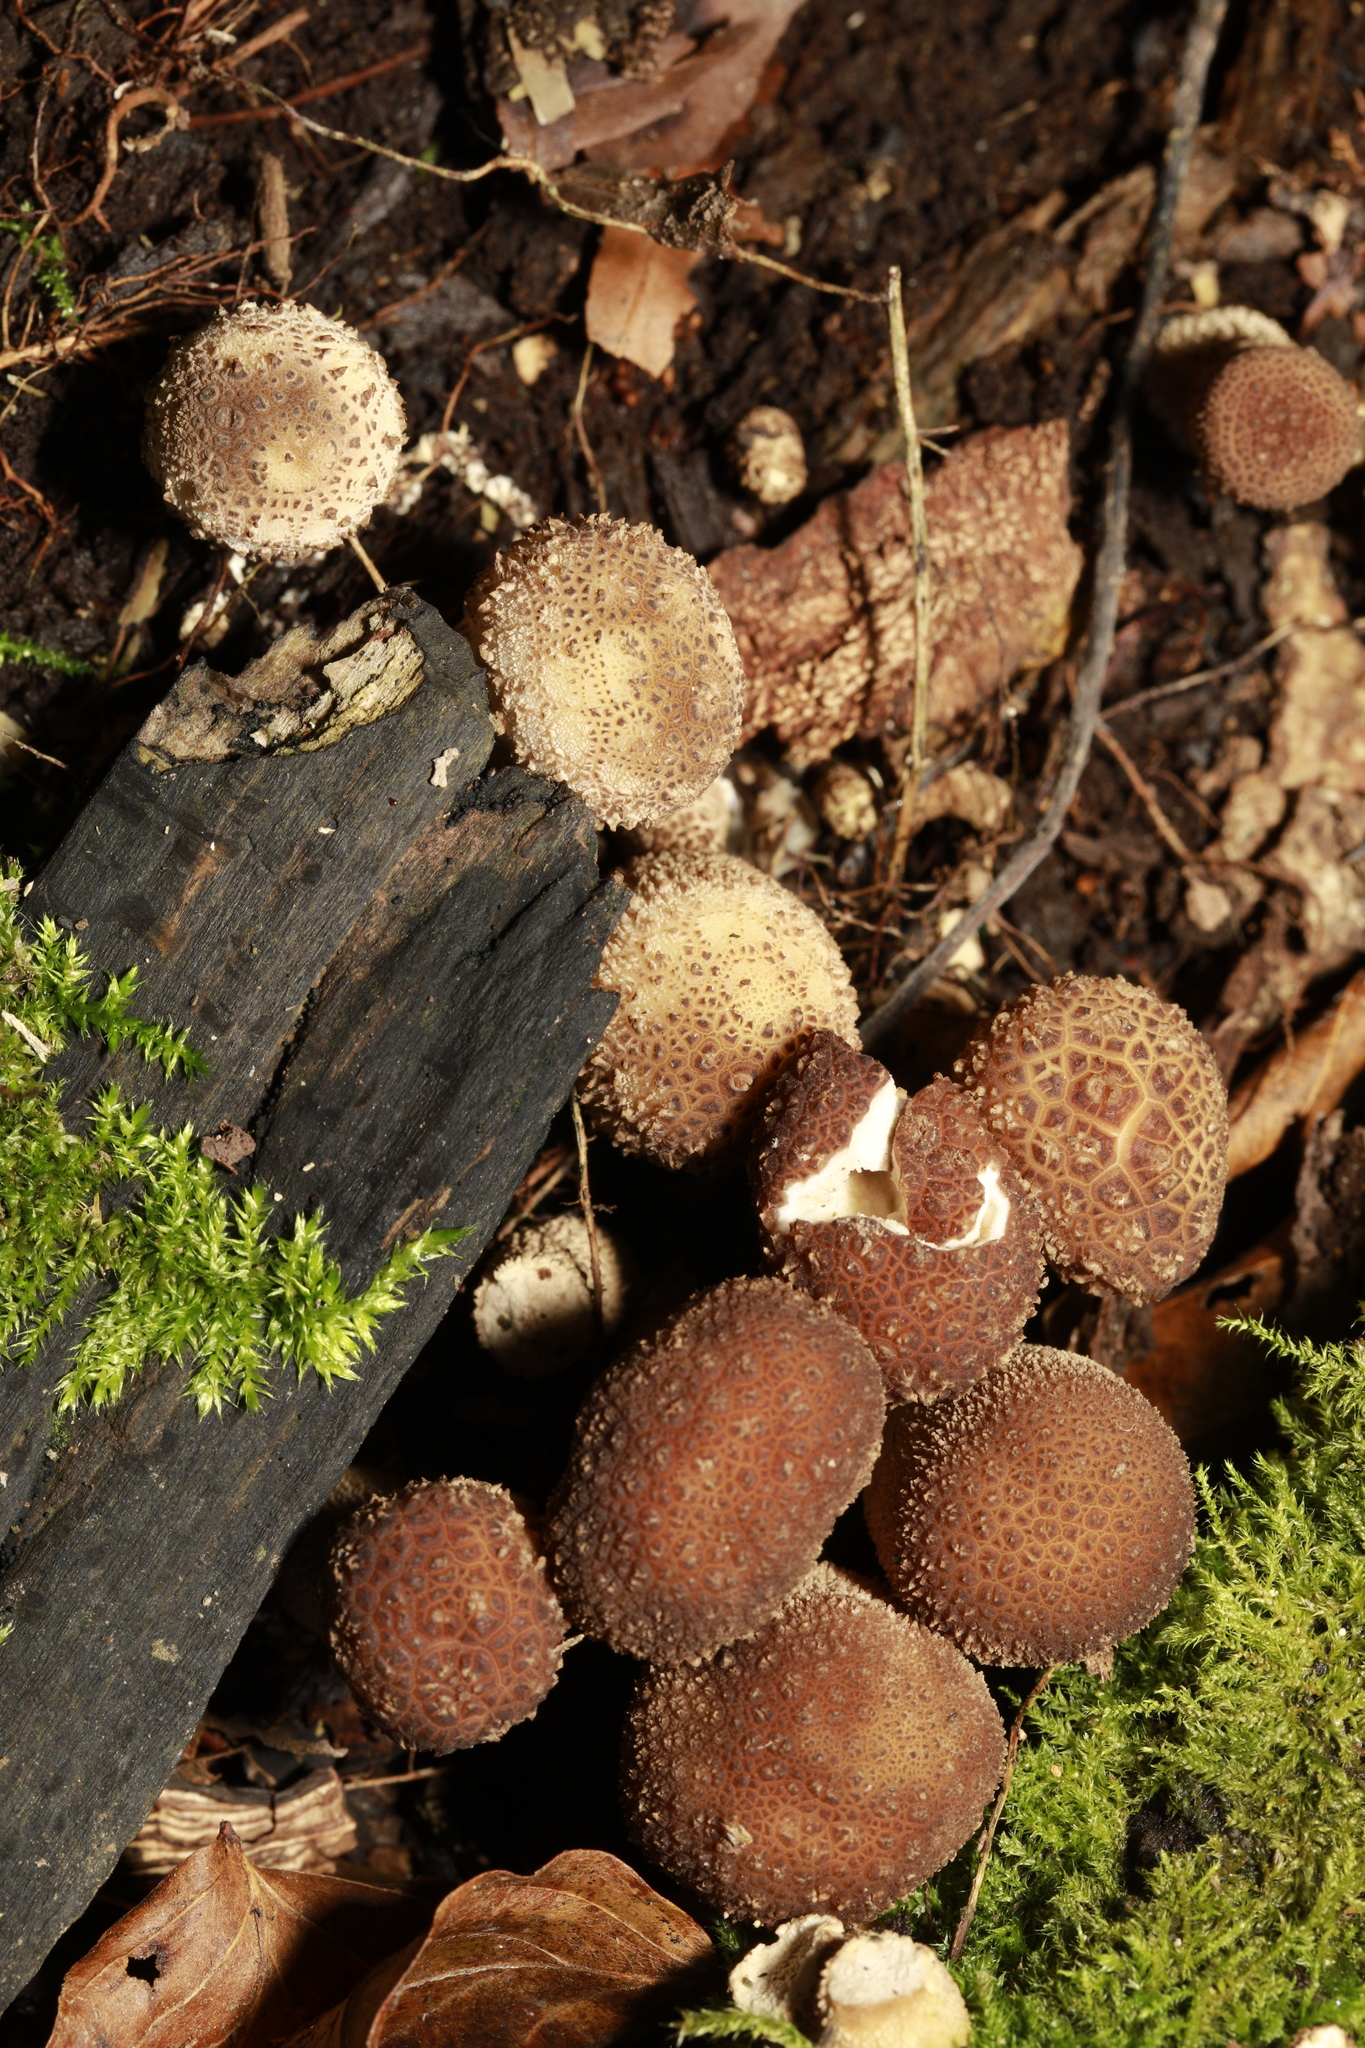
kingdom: Fungi
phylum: Basidiomycota
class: Agaricomycetes
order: Agaricales
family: Lycoperdaceae
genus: Apioperdon
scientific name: Apioperdon pyriforme
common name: Pear-shaped puffball
